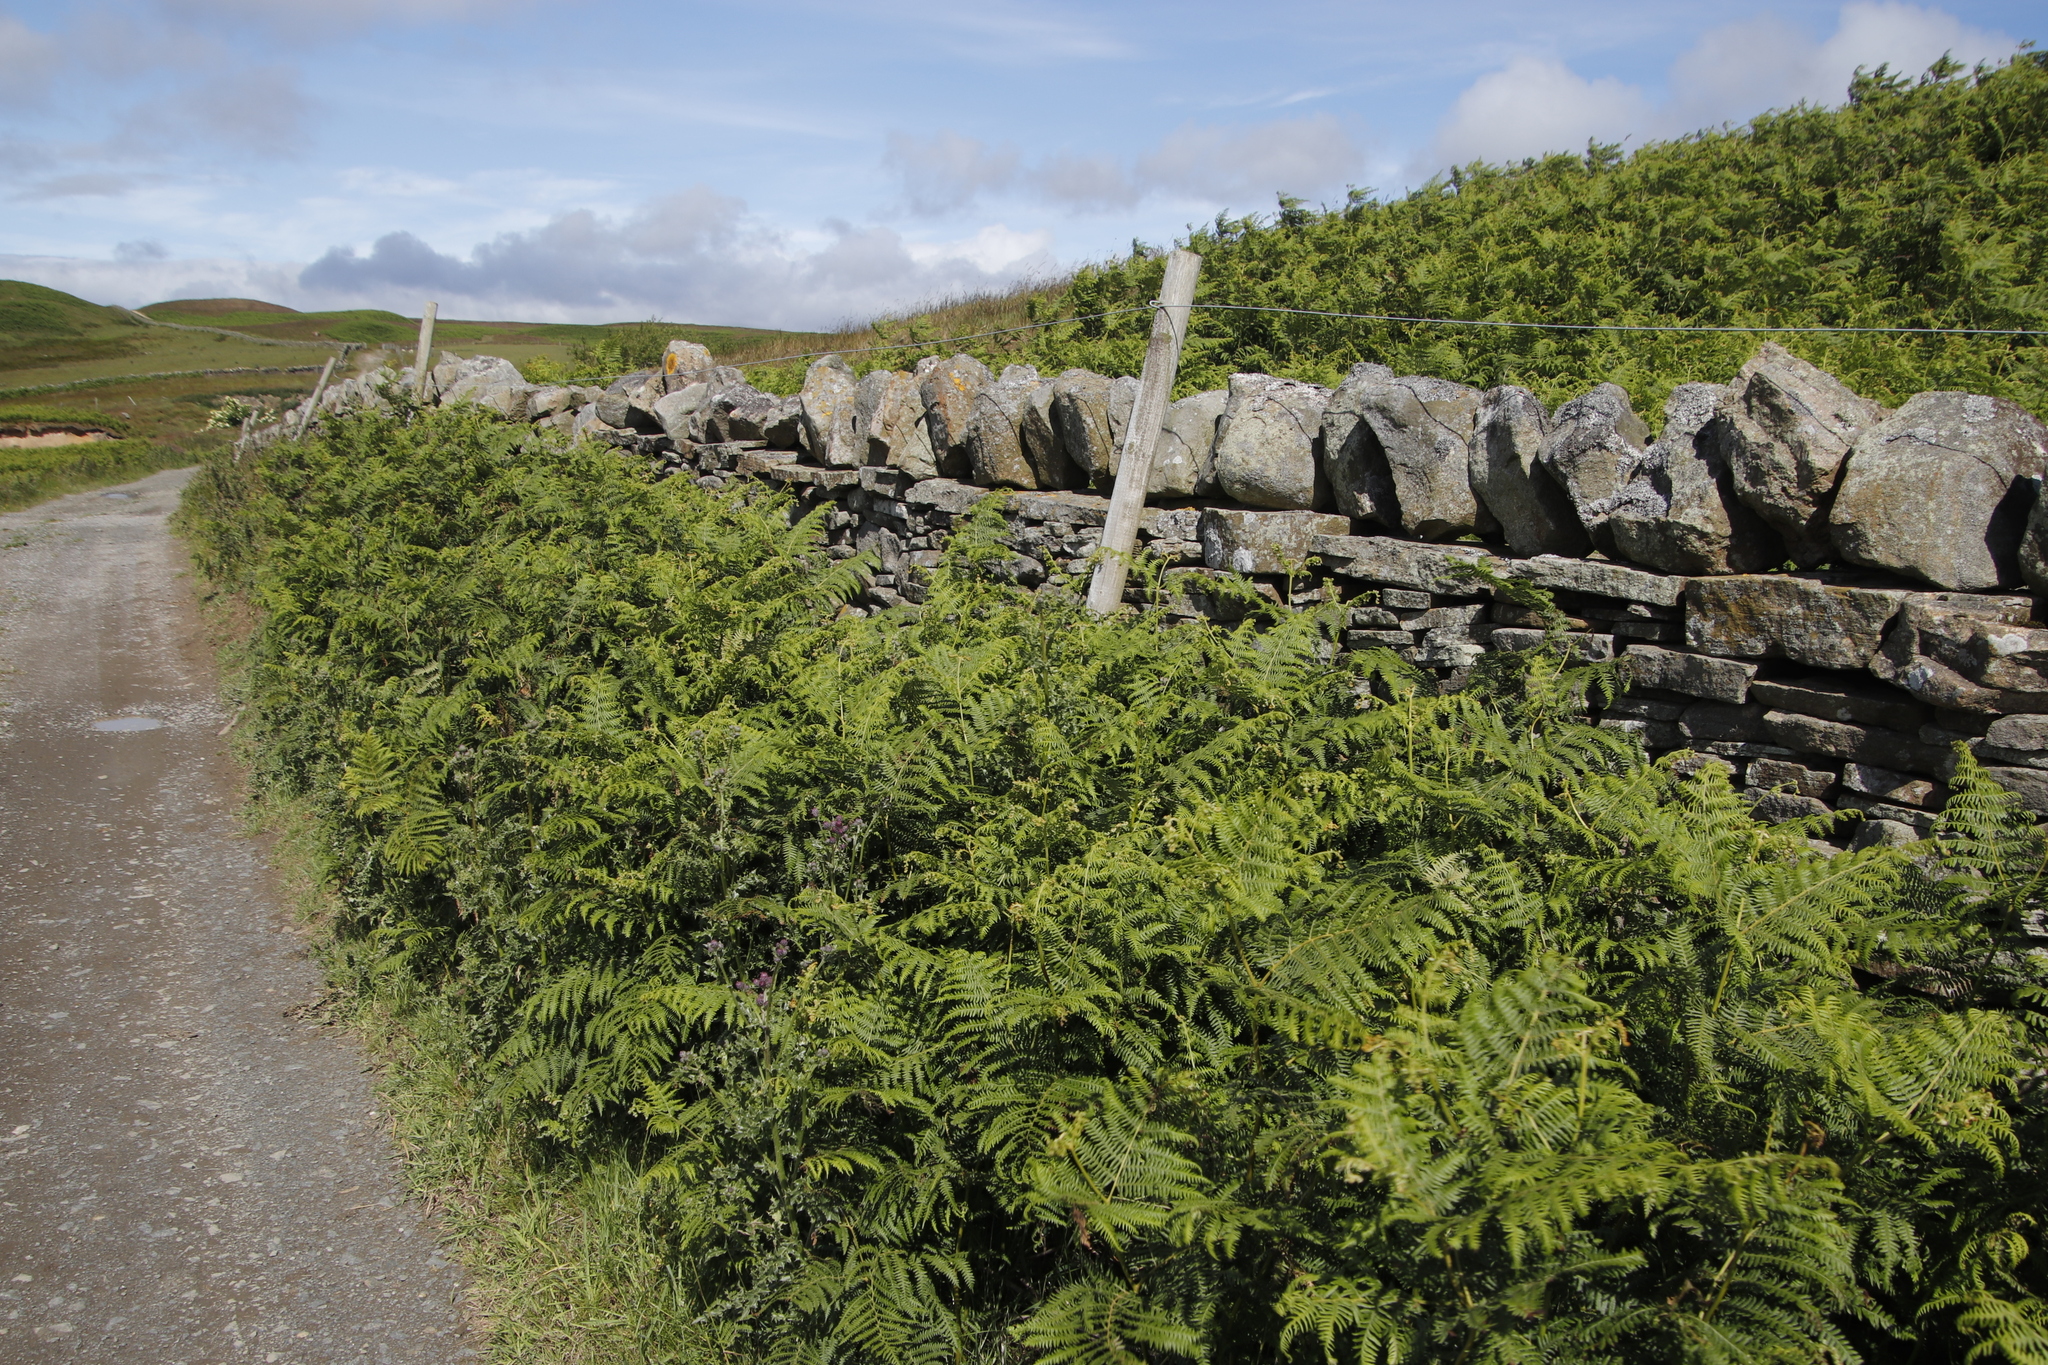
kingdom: Plantae
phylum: Tracheophyta
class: Polypodiopsida
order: Polypodiales
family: Dennstaedtiaceae
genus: Pteridium
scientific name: Pteridium aquilinum
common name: Bracken
